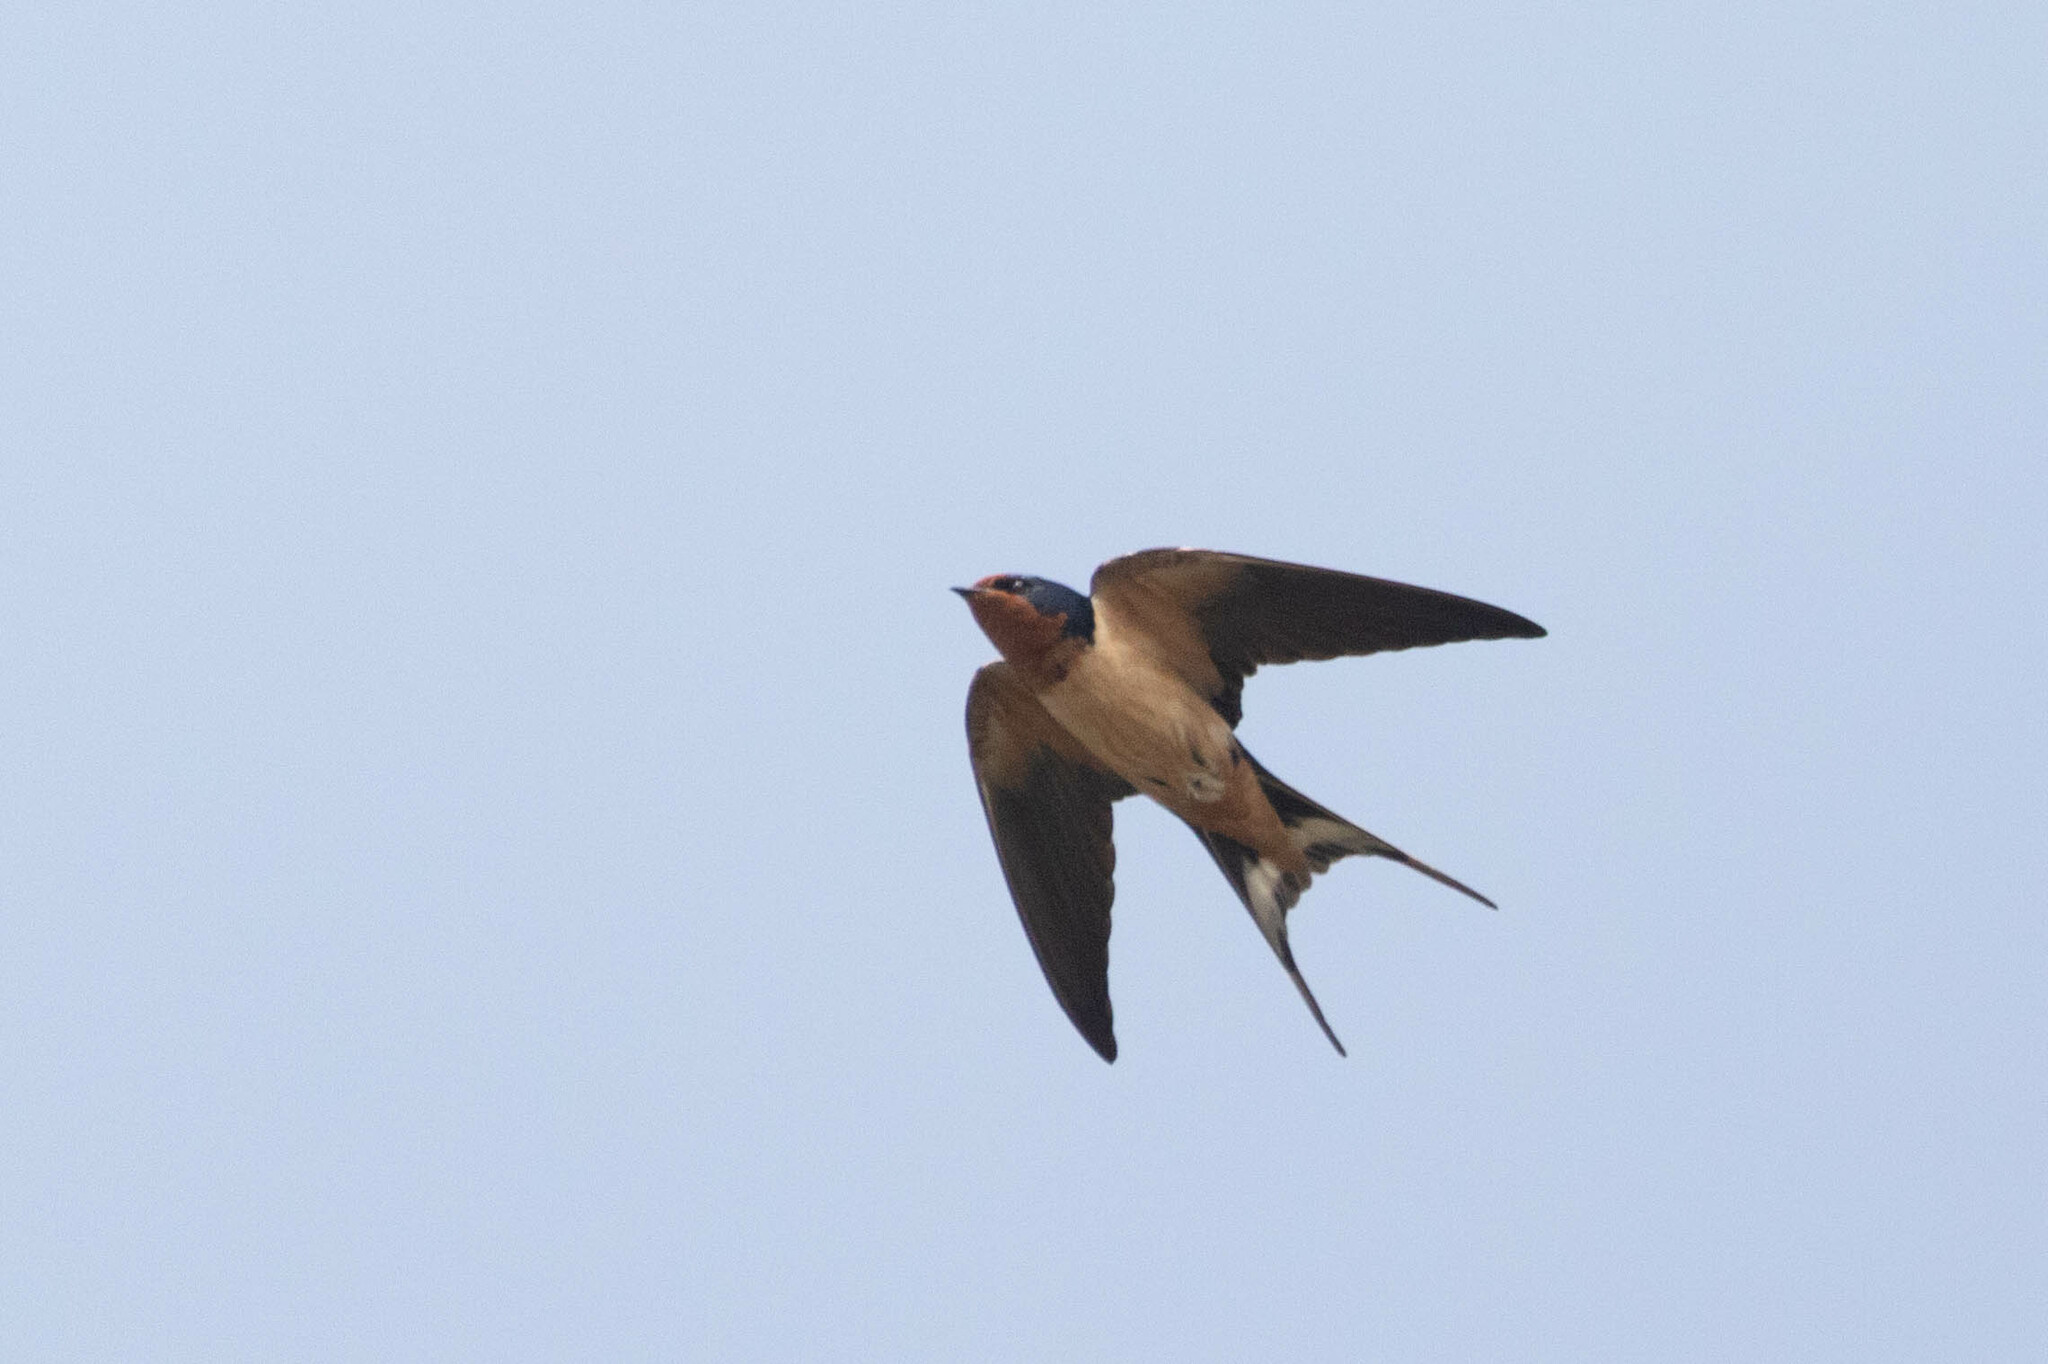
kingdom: Animalia
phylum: Chordata
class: Aves
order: Passeriformes
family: Hirundinidae
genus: Hirundo
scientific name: Hirundo rustica
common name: Barn swallow
